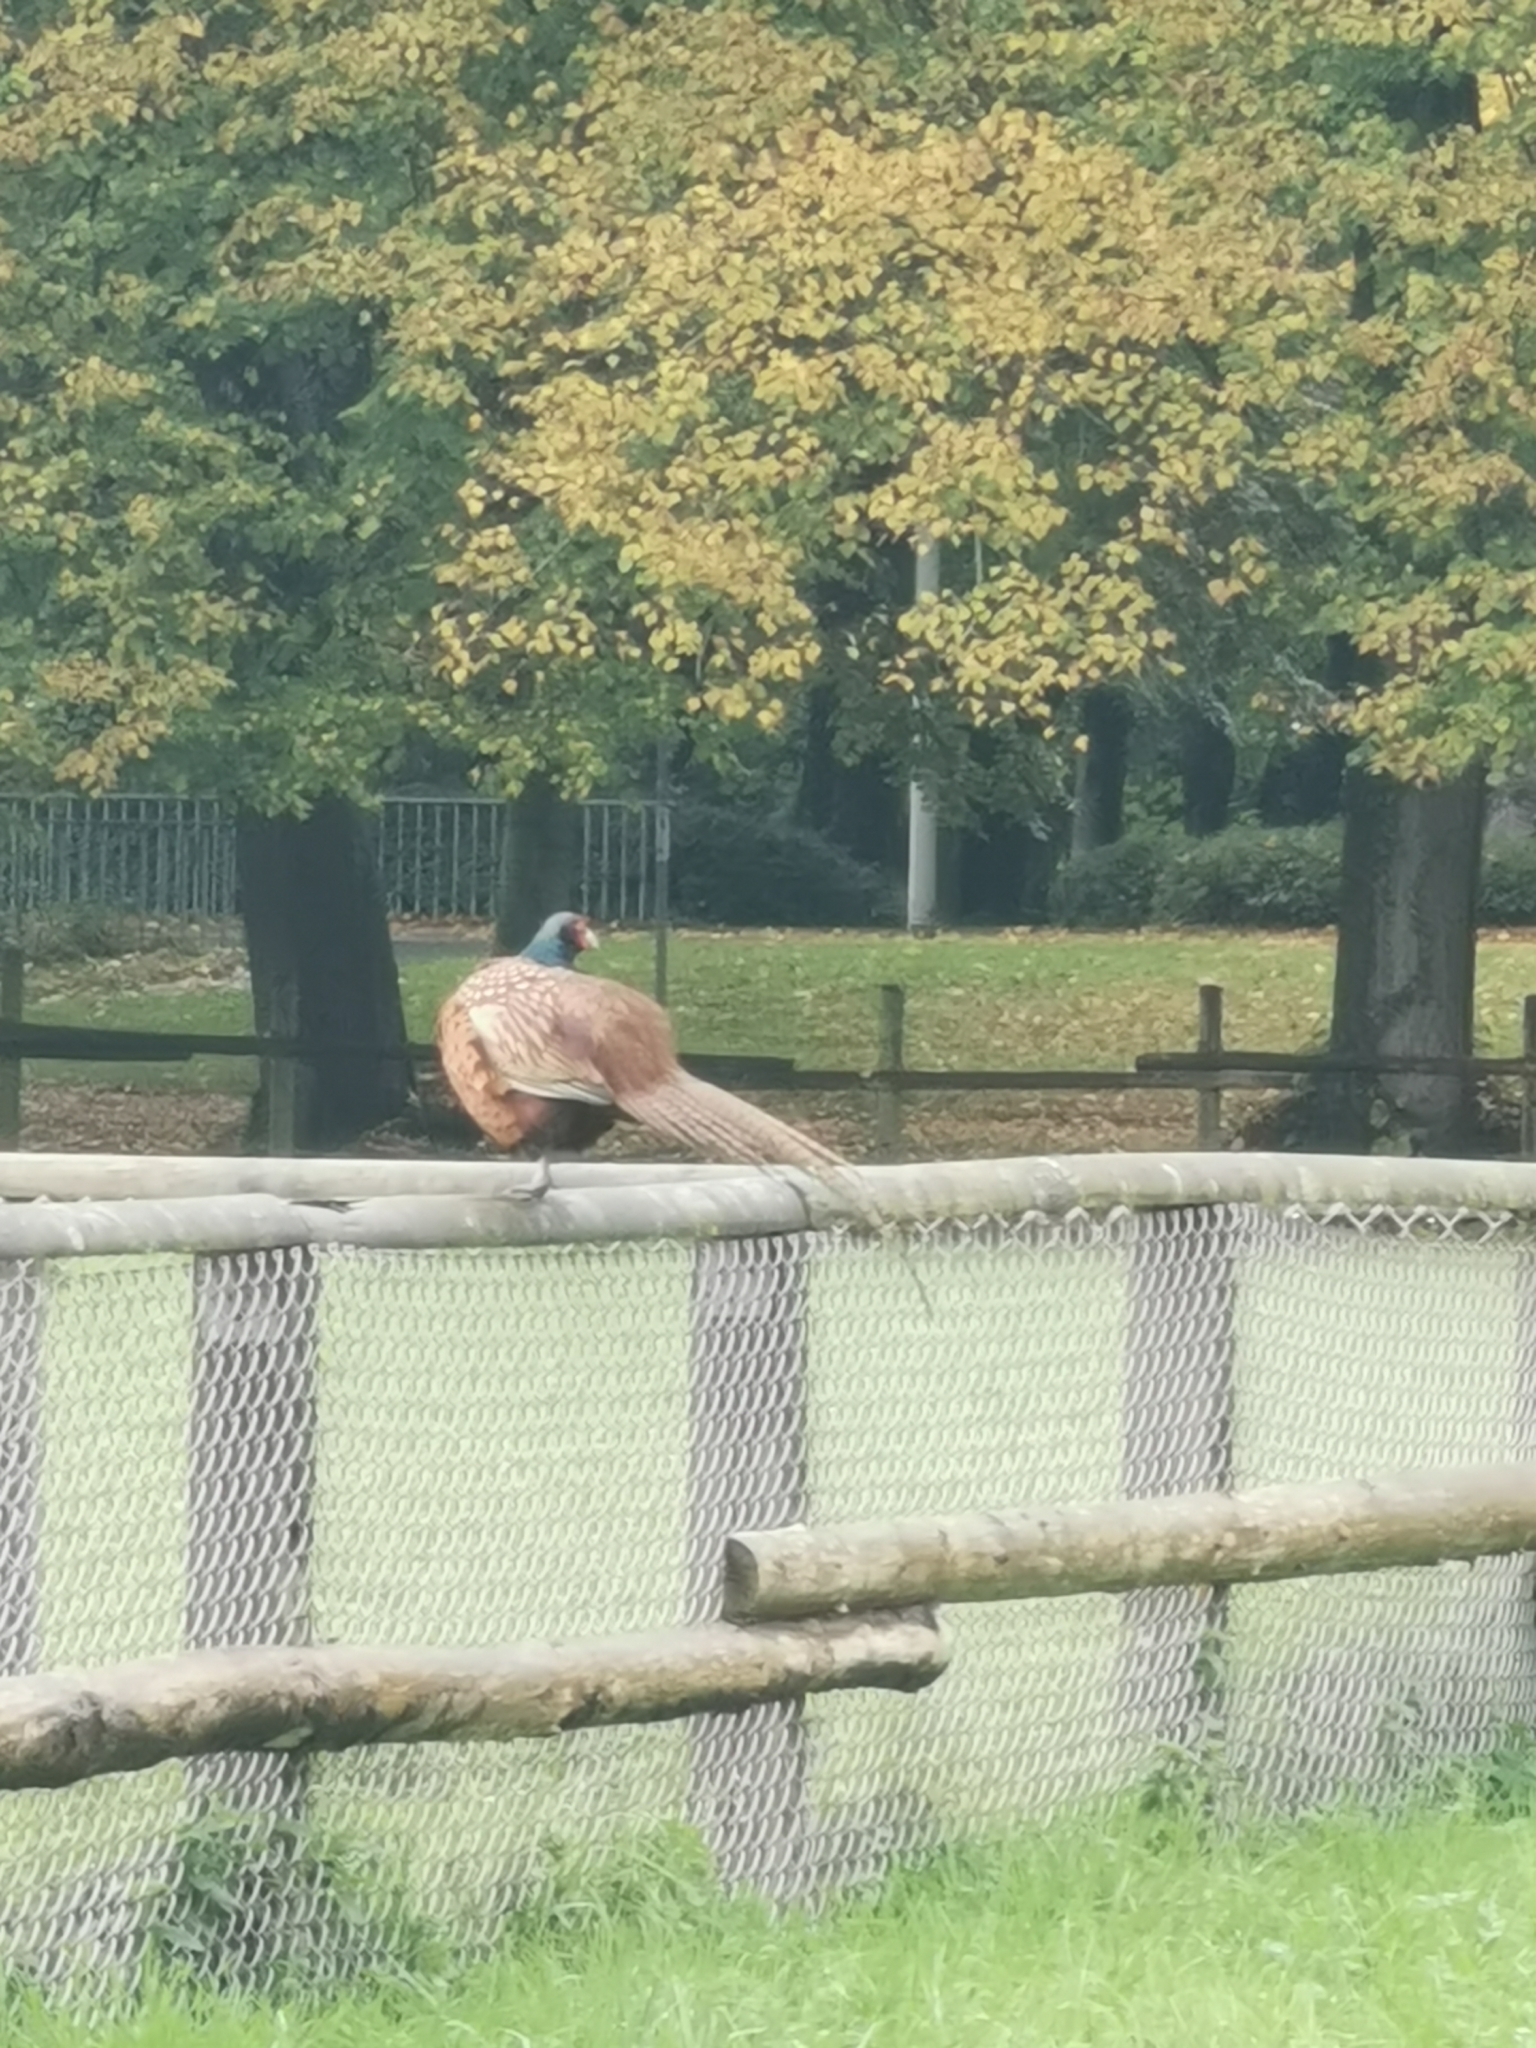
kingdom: Animalia
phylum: Chordata
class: Aves
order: Galliformes
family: Phasianidae
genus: Phasianus
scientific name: Phasianus colchicus
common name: Common pheasant
